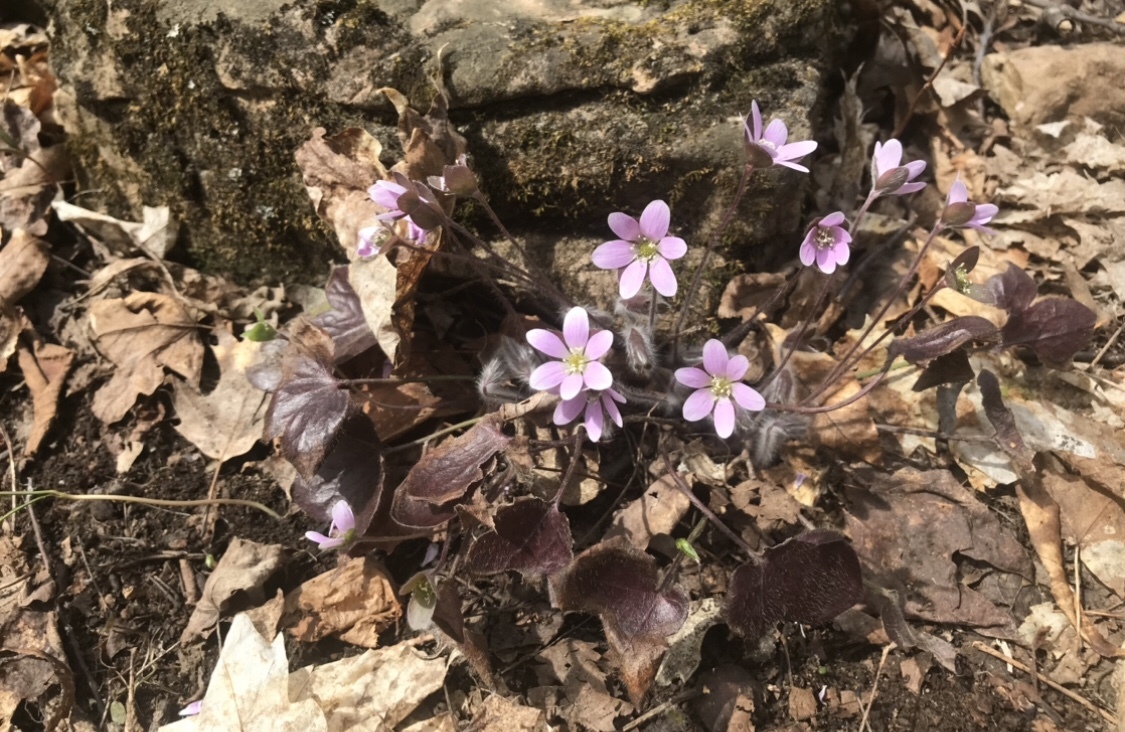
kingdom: Plantae
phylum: Tracheophyta
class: Magnoliopsida
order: Ranunculales
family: Ranunculaceae
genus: Hepatica
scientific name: Hepatica acutiloba
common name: Sharp-lobed hepatica
